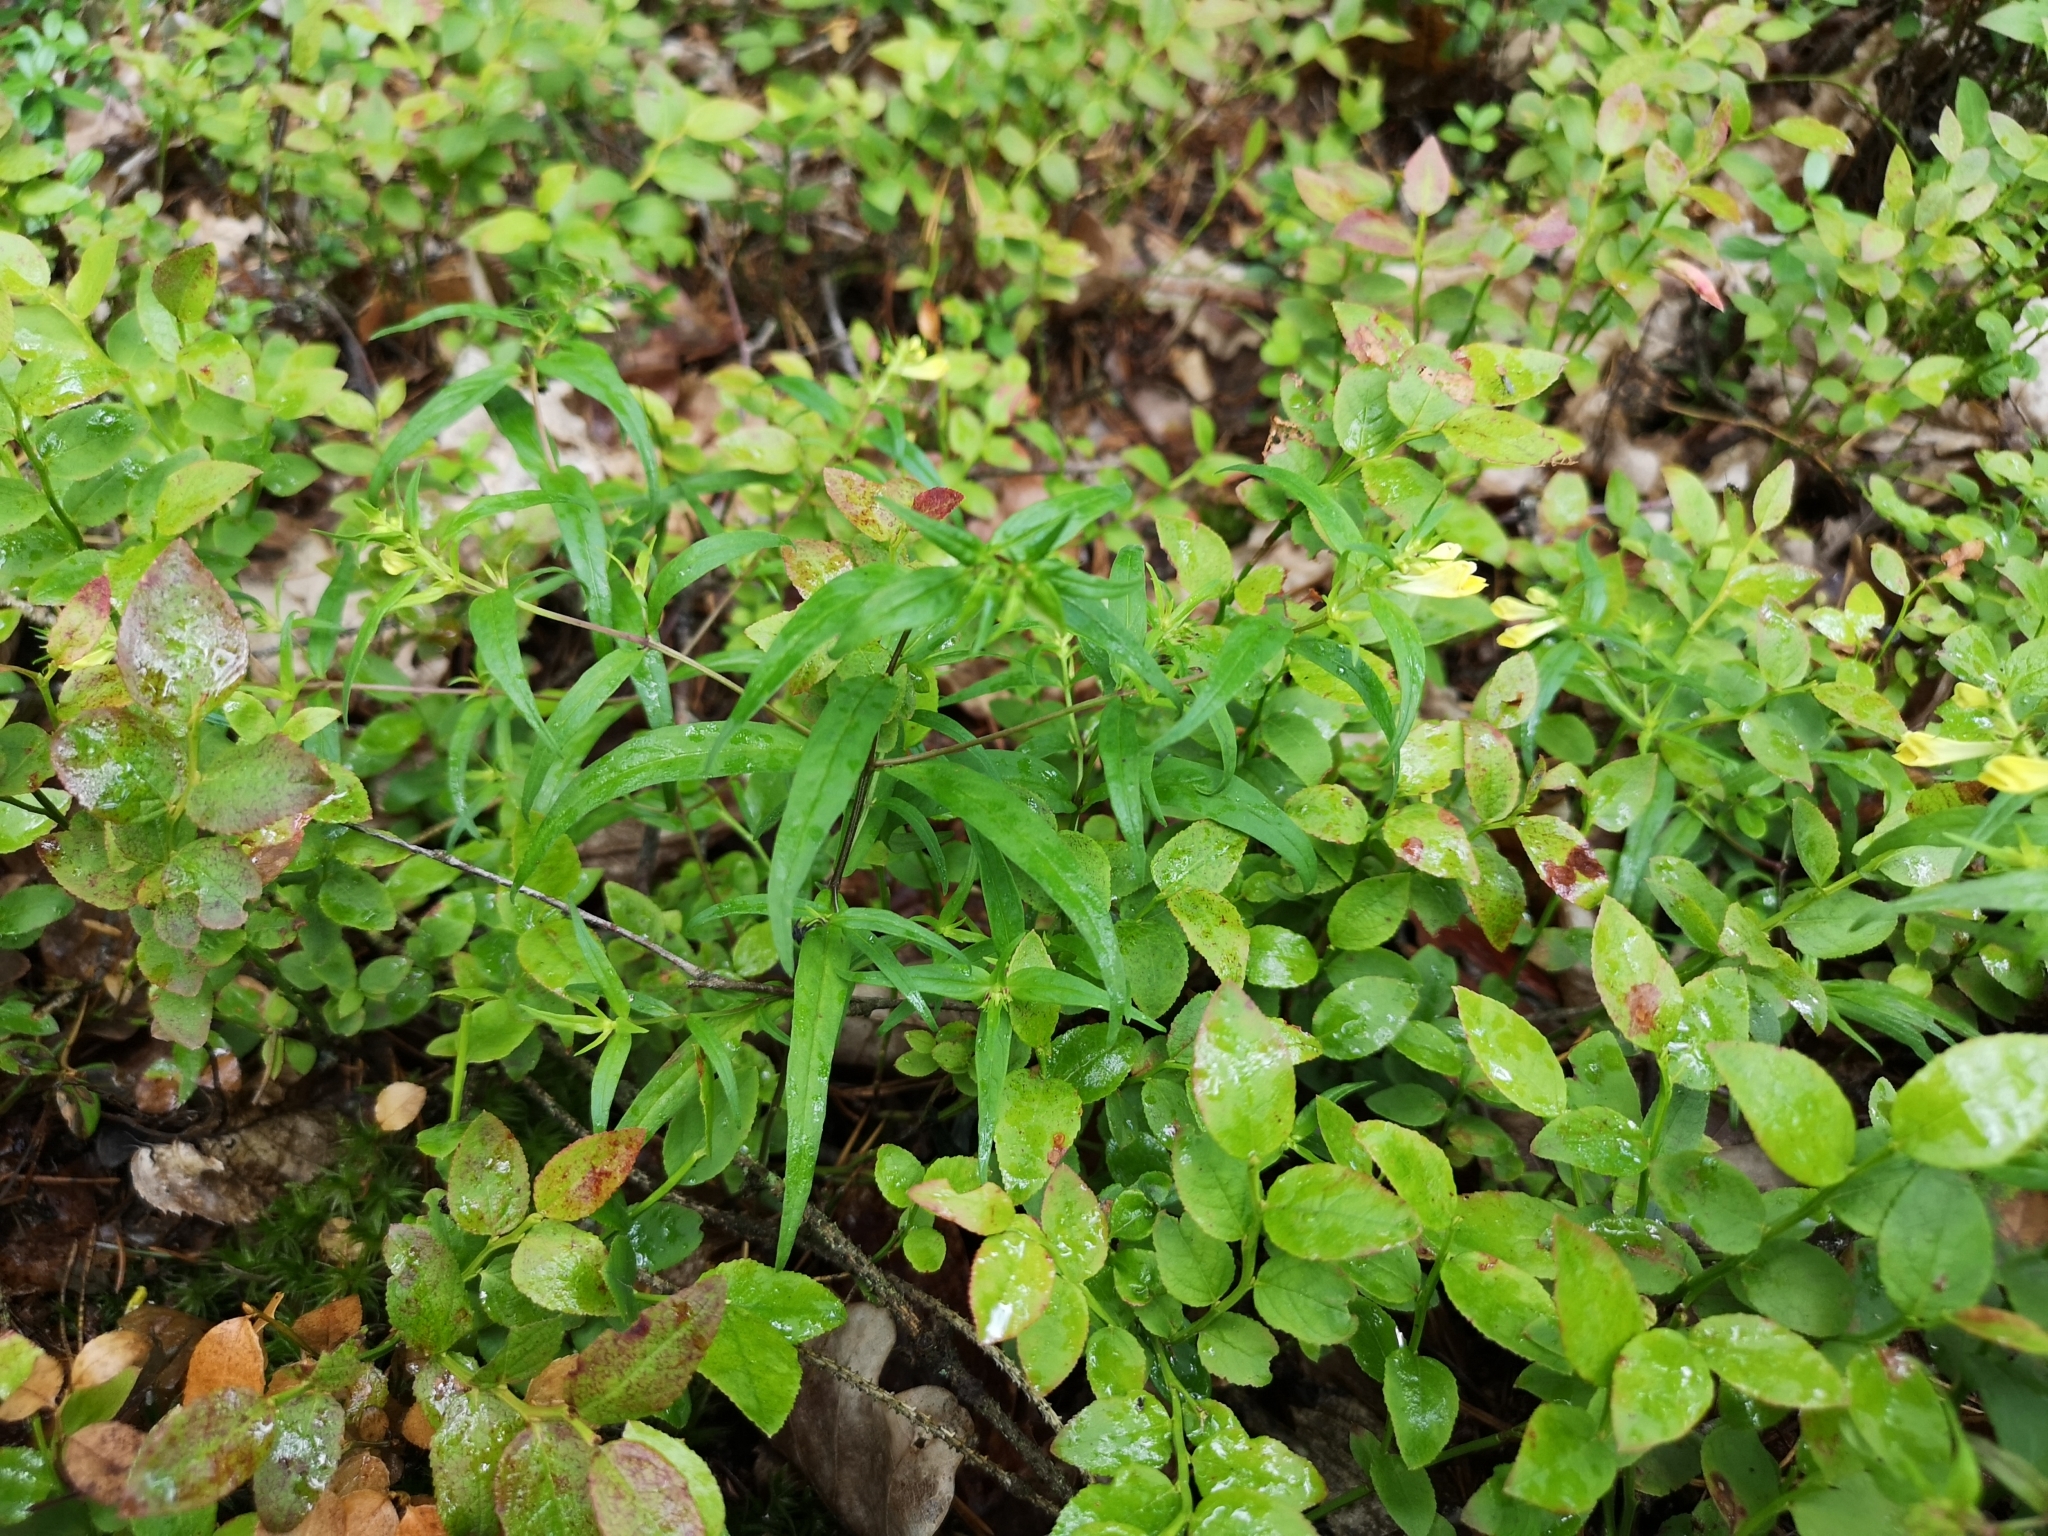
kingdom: Plantae
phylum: Tracheophyta
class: Magnoliopsida
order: Lamiales
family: Orobanchaceae
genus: Melampyrum
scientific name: Melampyrum pratense
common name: Common cow-wheat
